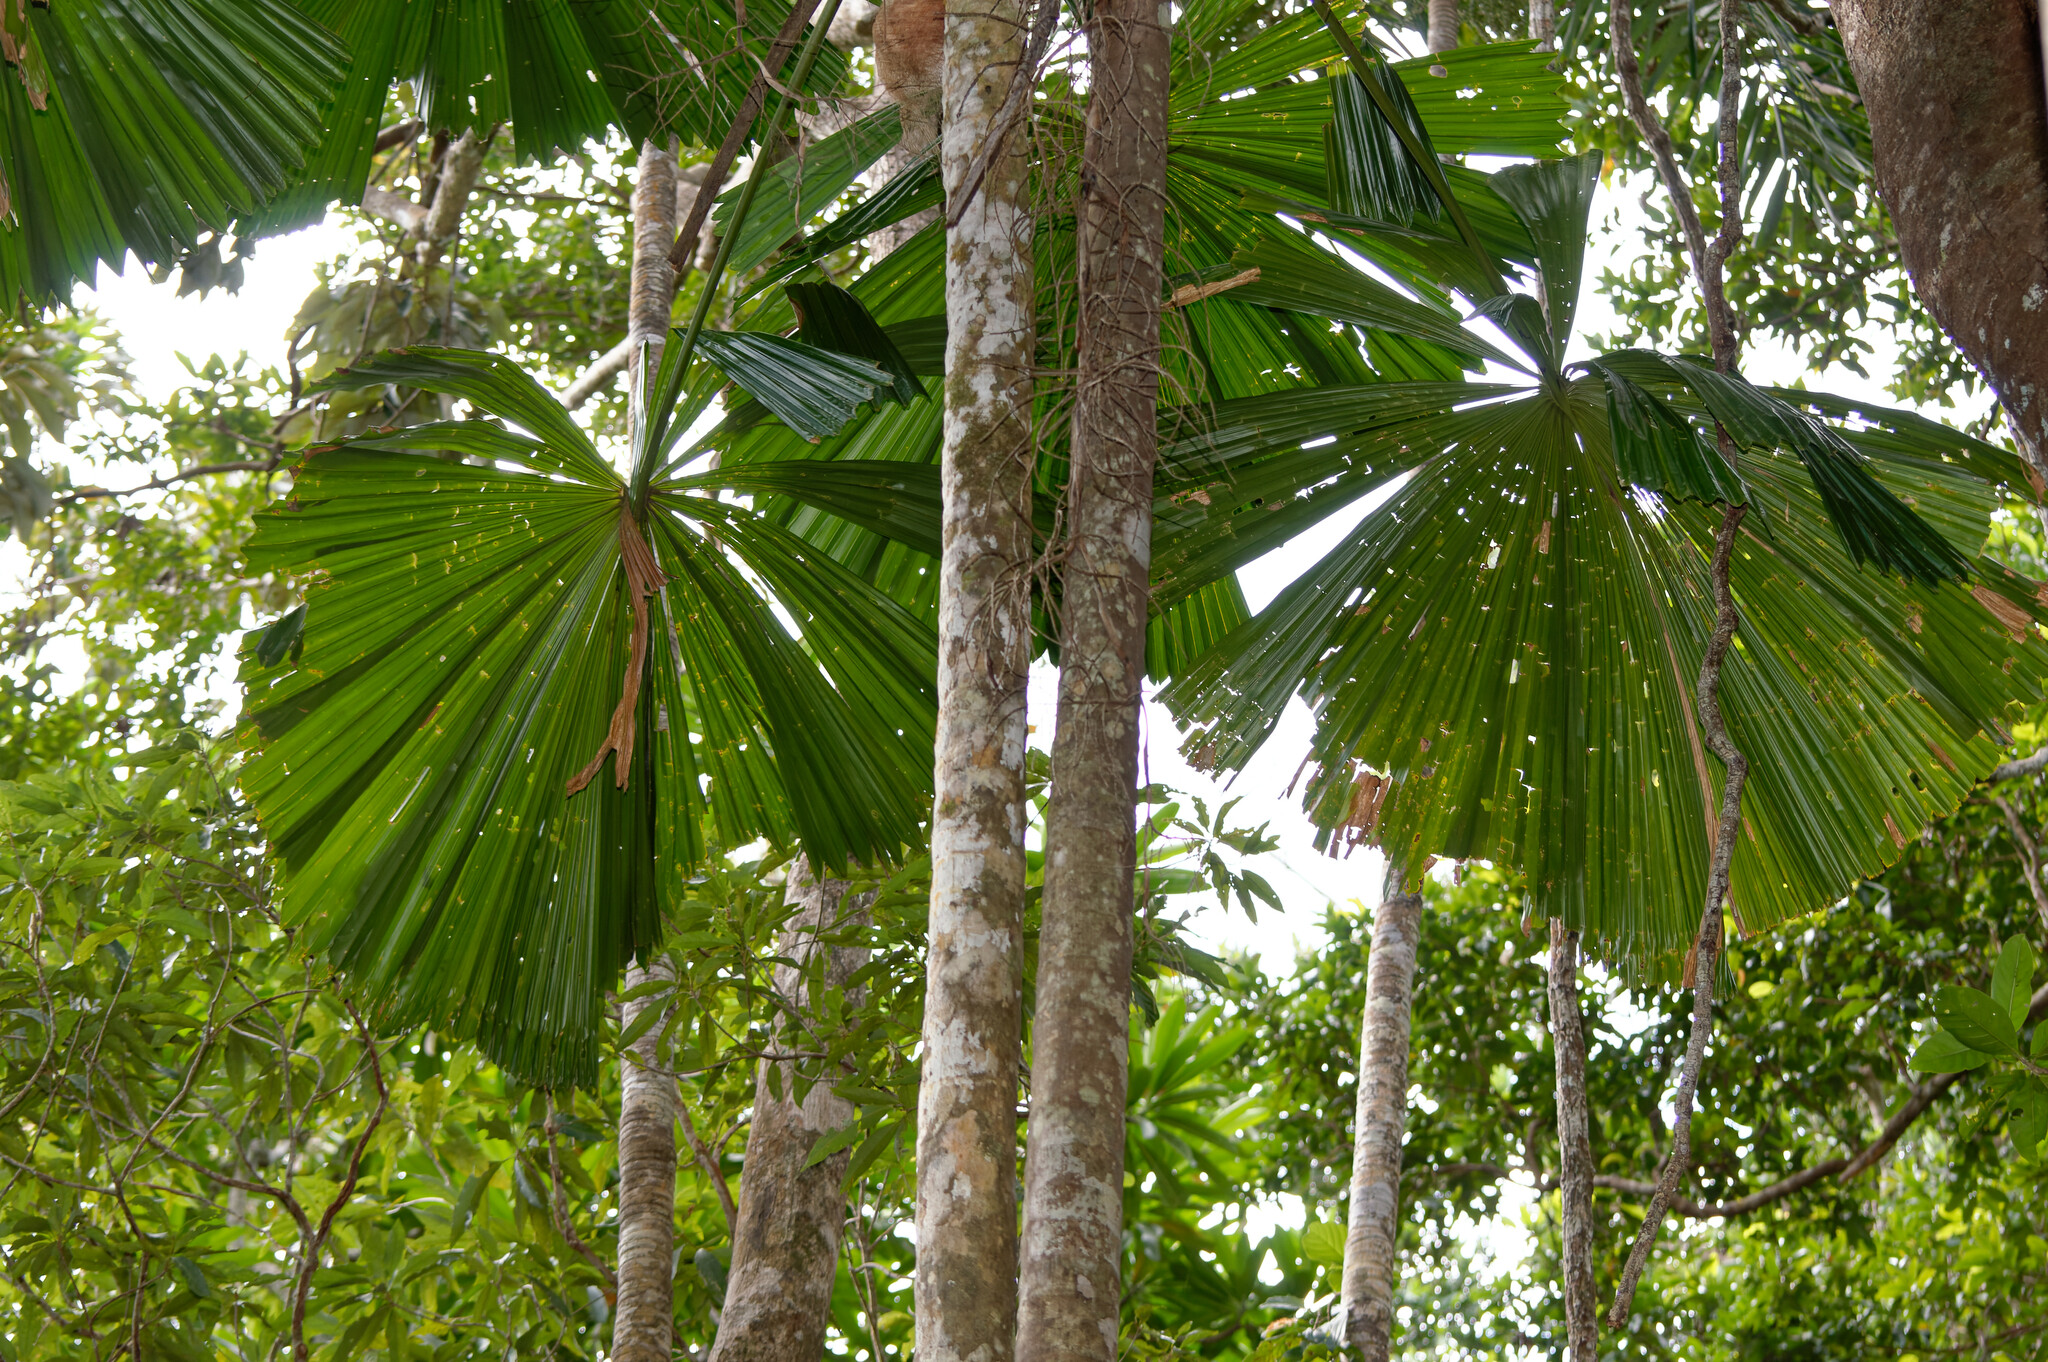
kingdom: Plantae
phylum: Tracheophyta
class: Liliopsida
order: Arecales
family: Arecaceae
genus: Licuala
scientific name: Licuala ramsayi
